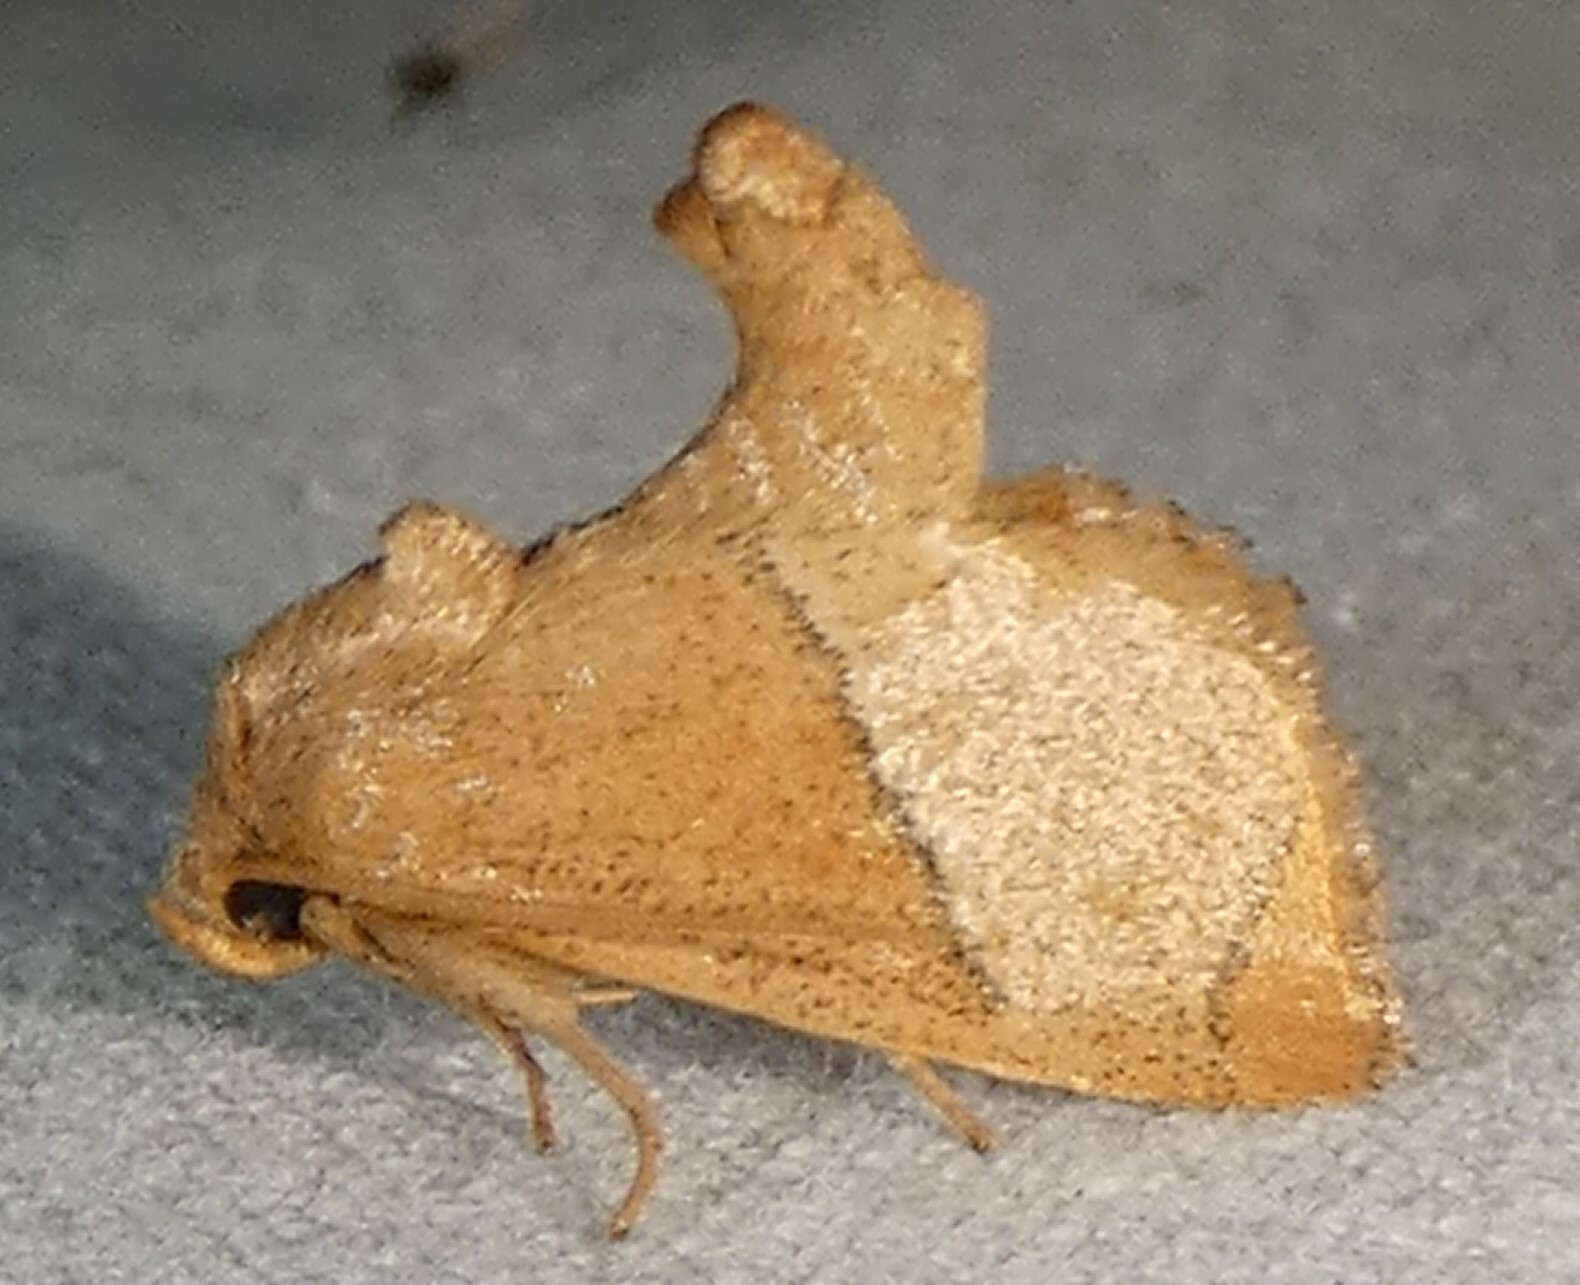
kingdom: Animalia
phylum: Arthropoda
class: Insecta
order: Lepidoptera
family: Limacodidae
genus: Apoda
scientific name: Apoda rectilinea
